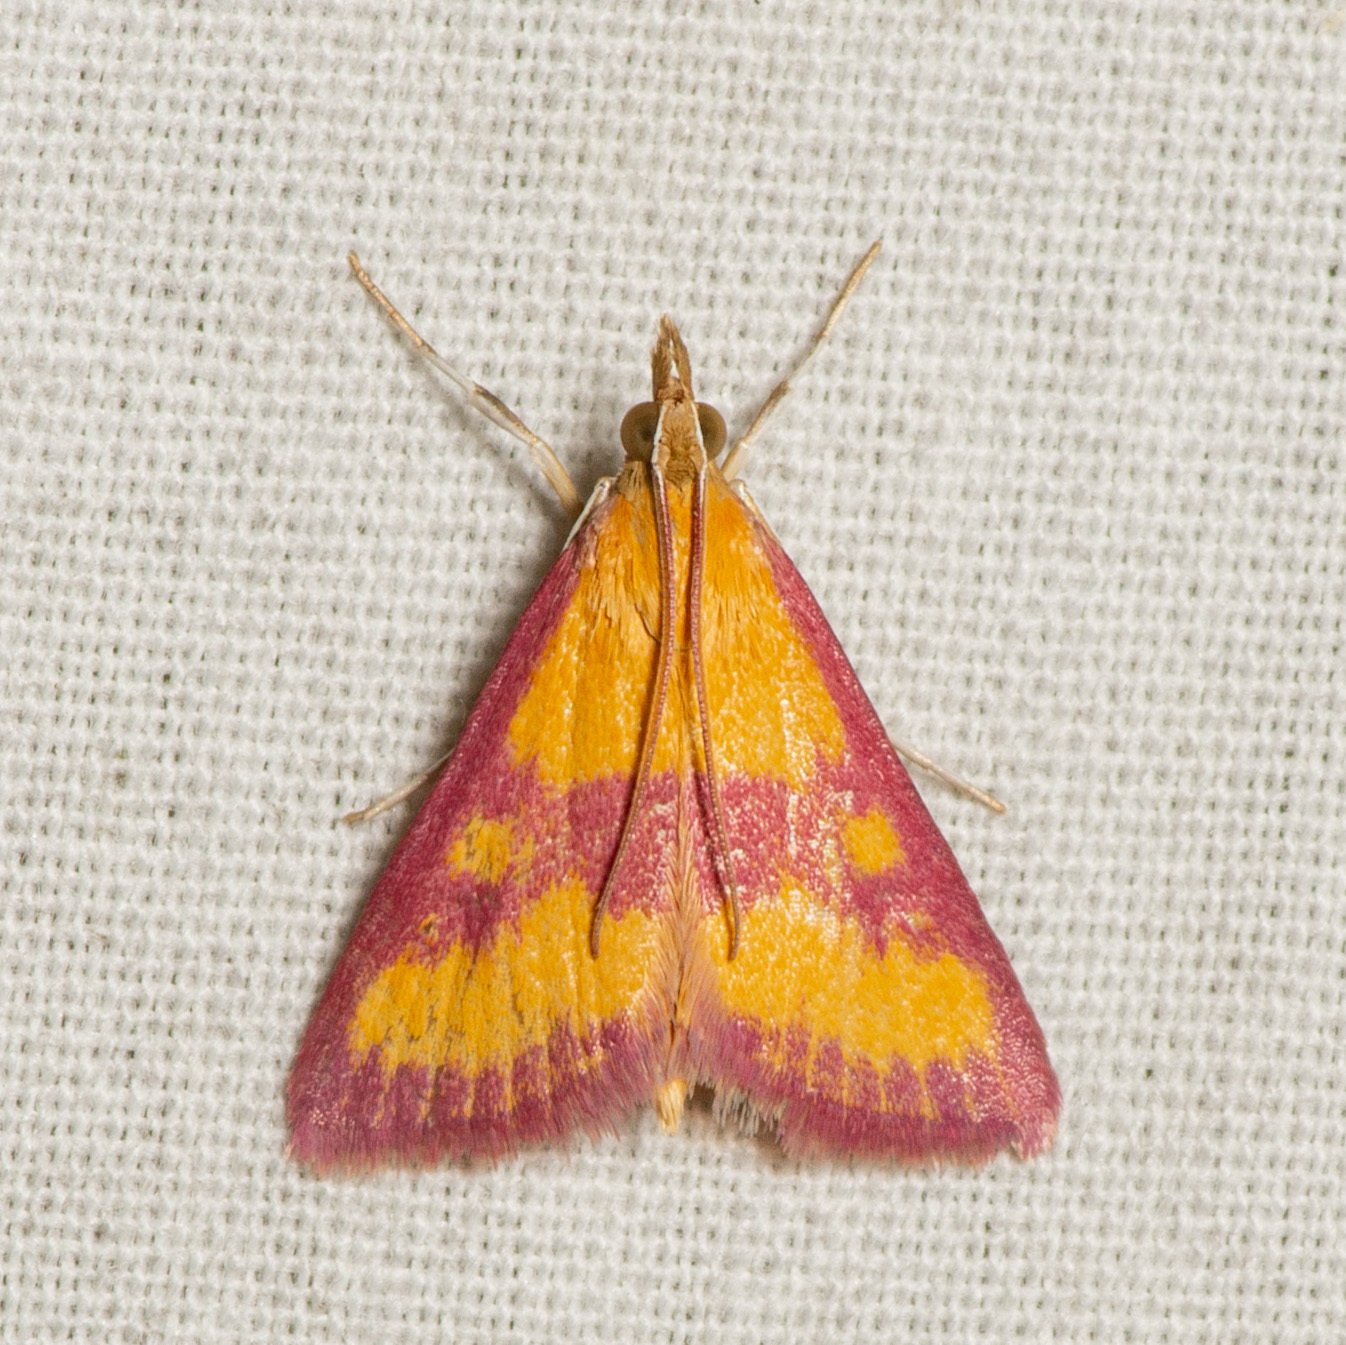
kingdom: Animalia
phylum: Arthropoda
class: Insecta
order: Lepidoptera
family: Crambidae
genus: Pyrausta
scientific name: Pyrausta laticlavia
